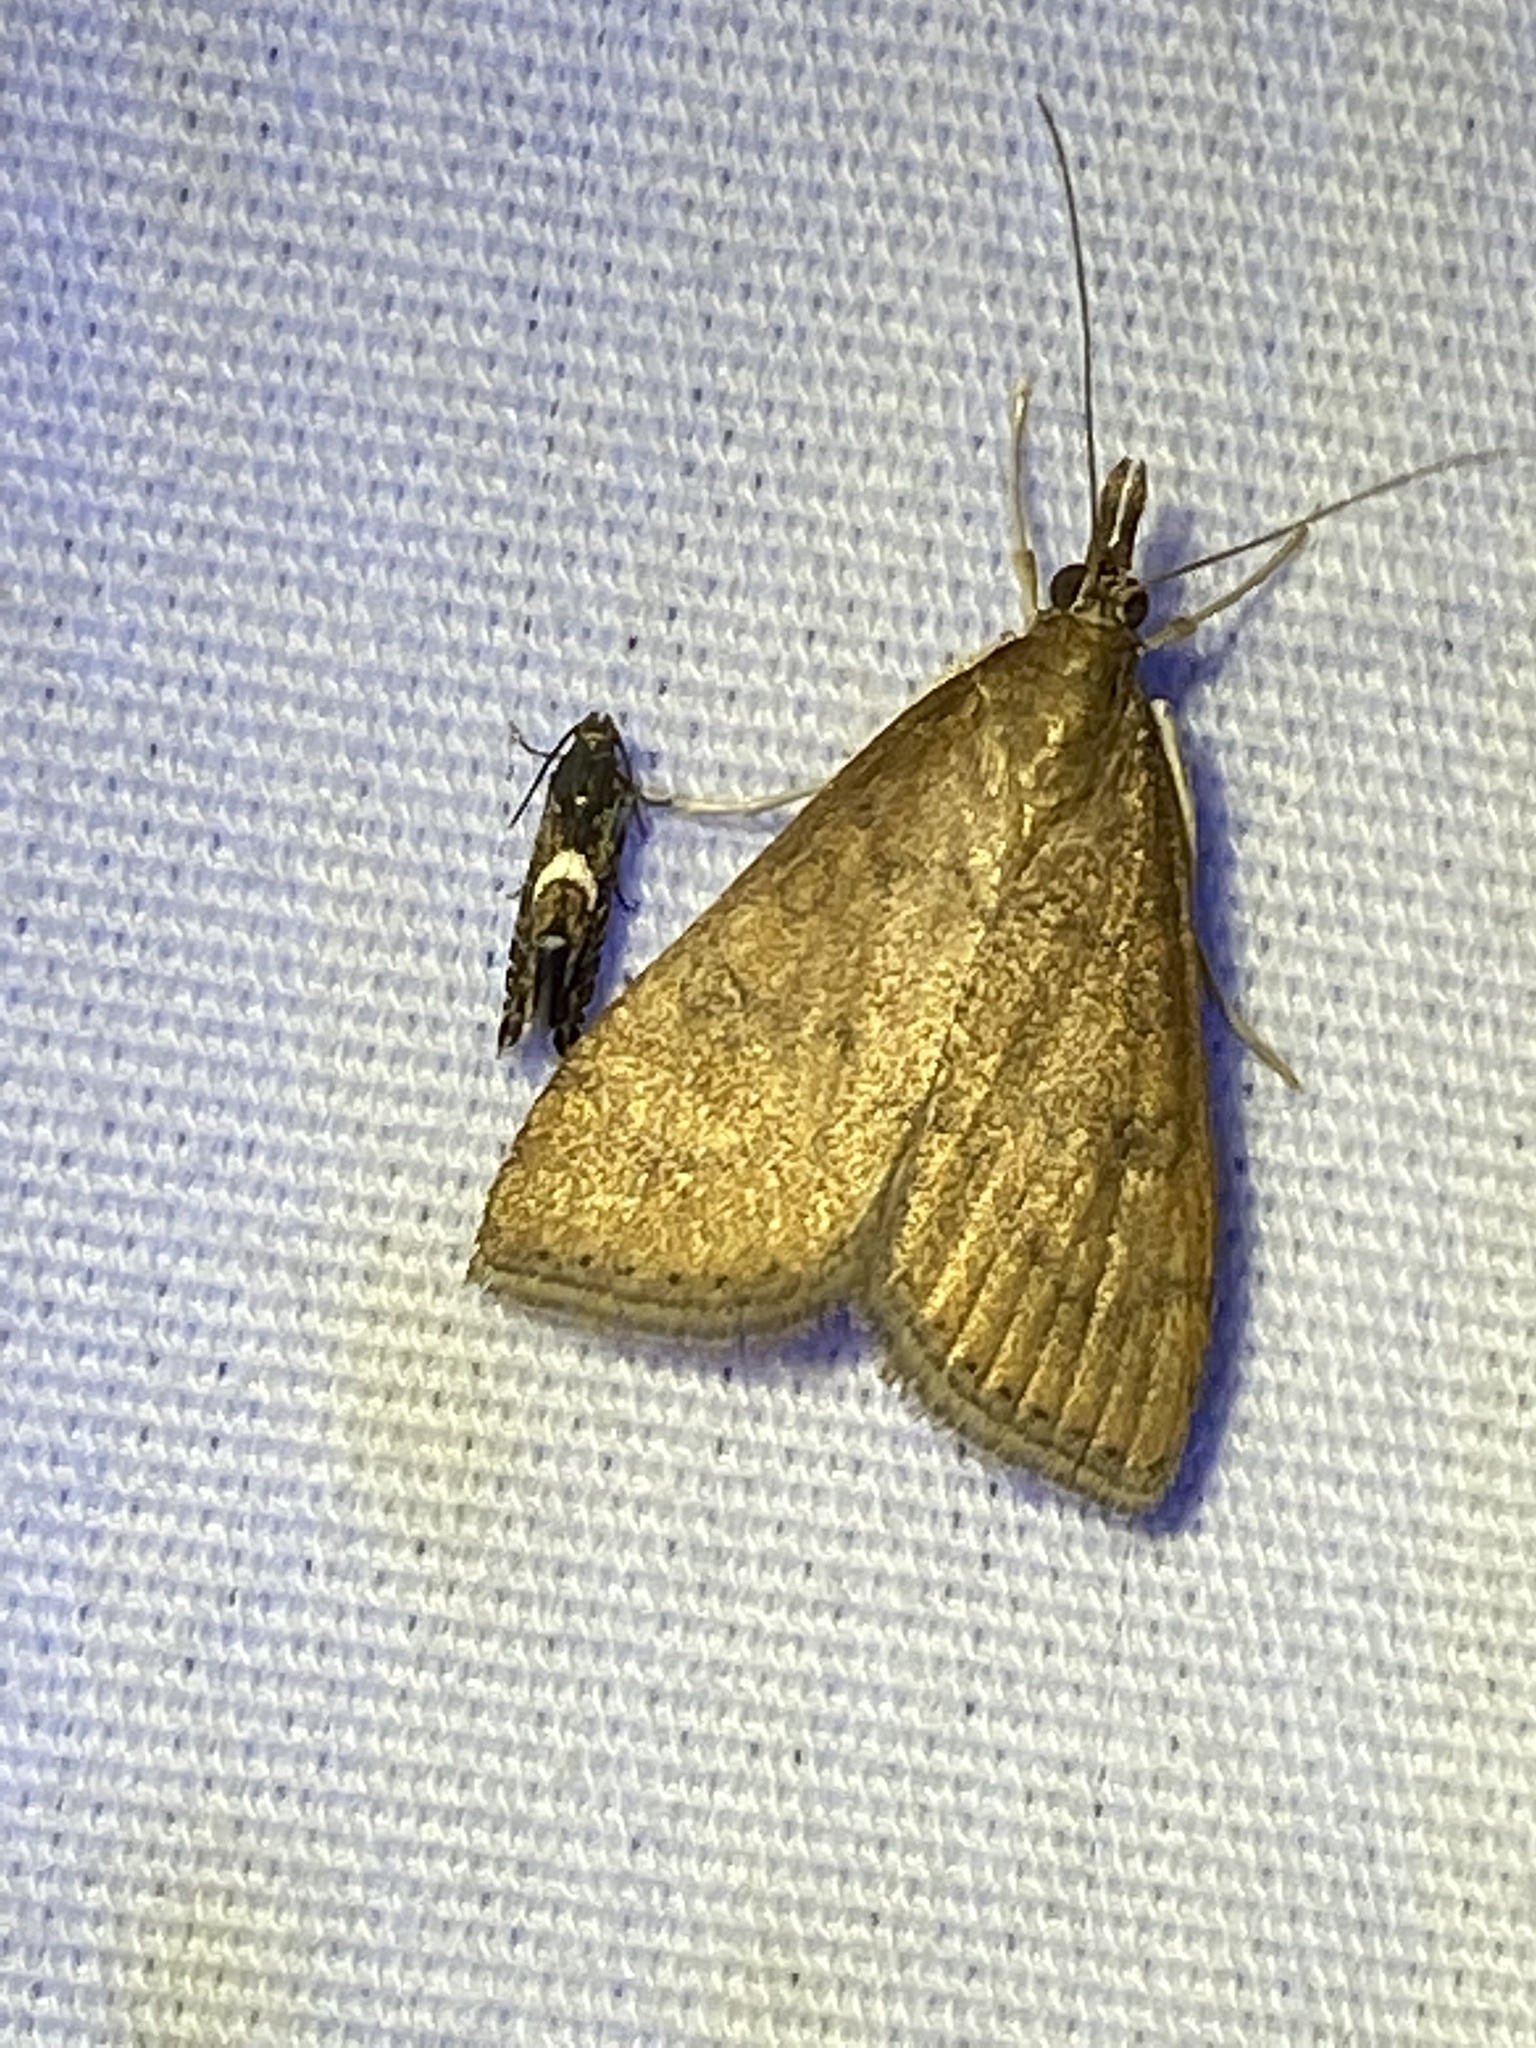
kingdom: Animalia
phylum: Arthropoda
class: Insecta
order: Lepidoptera
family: Crambidae
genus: Udea
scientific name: Udea rubigalis
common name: Celery leaftier moth
